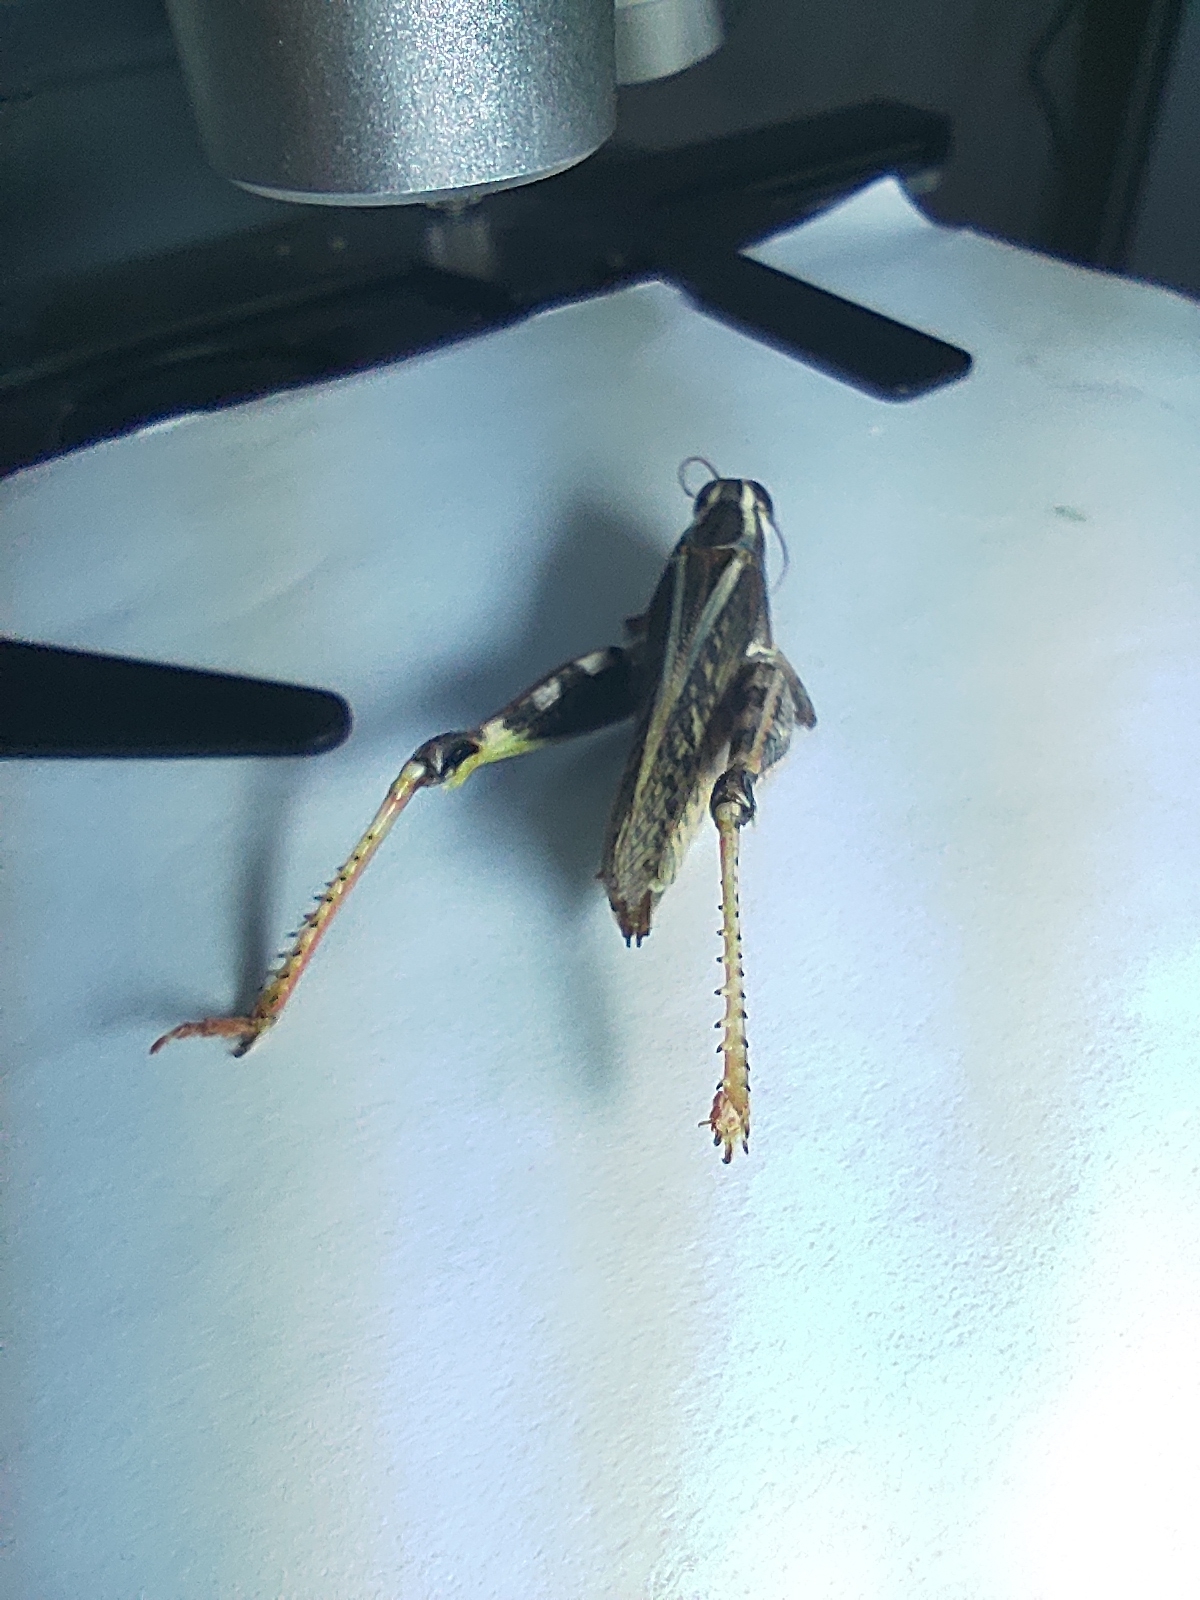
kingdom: Animalia
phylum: Arthropoda
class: Insecta
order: Orthoptera
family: Acrididae
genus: Calliptamus
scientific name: Calliptamus barbarus
